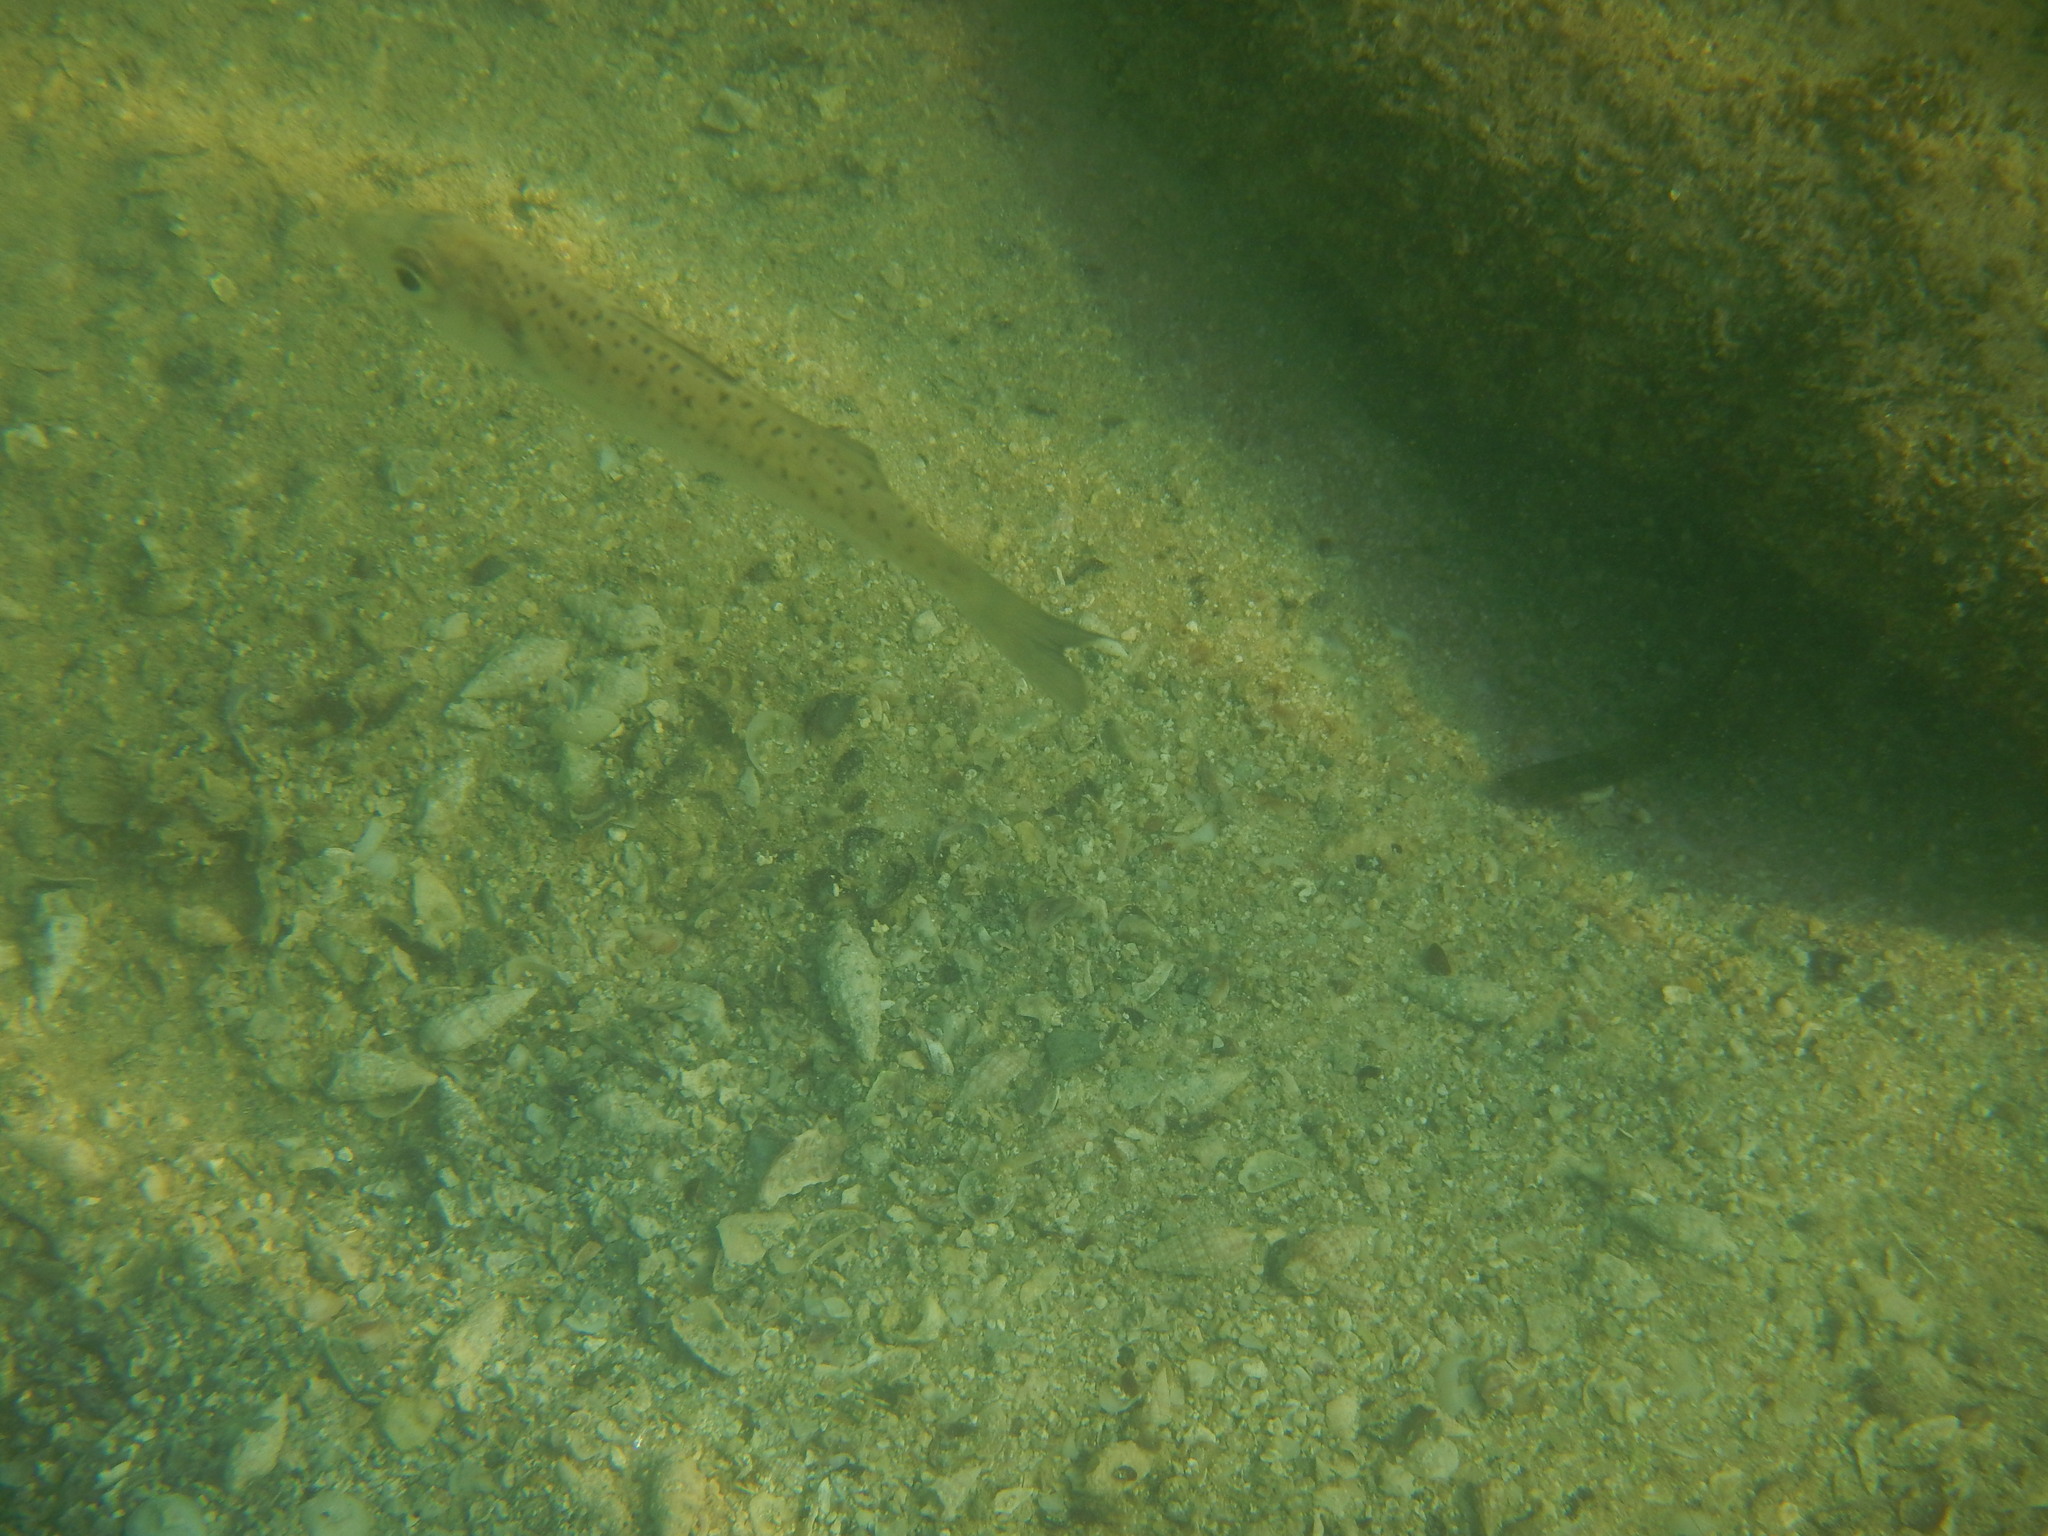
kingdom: Animalia
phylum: Chordata
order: Perciformes
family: Moronidae
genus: Dicentrarchus
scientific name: Dicentrarchus labrax
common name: European seabass
